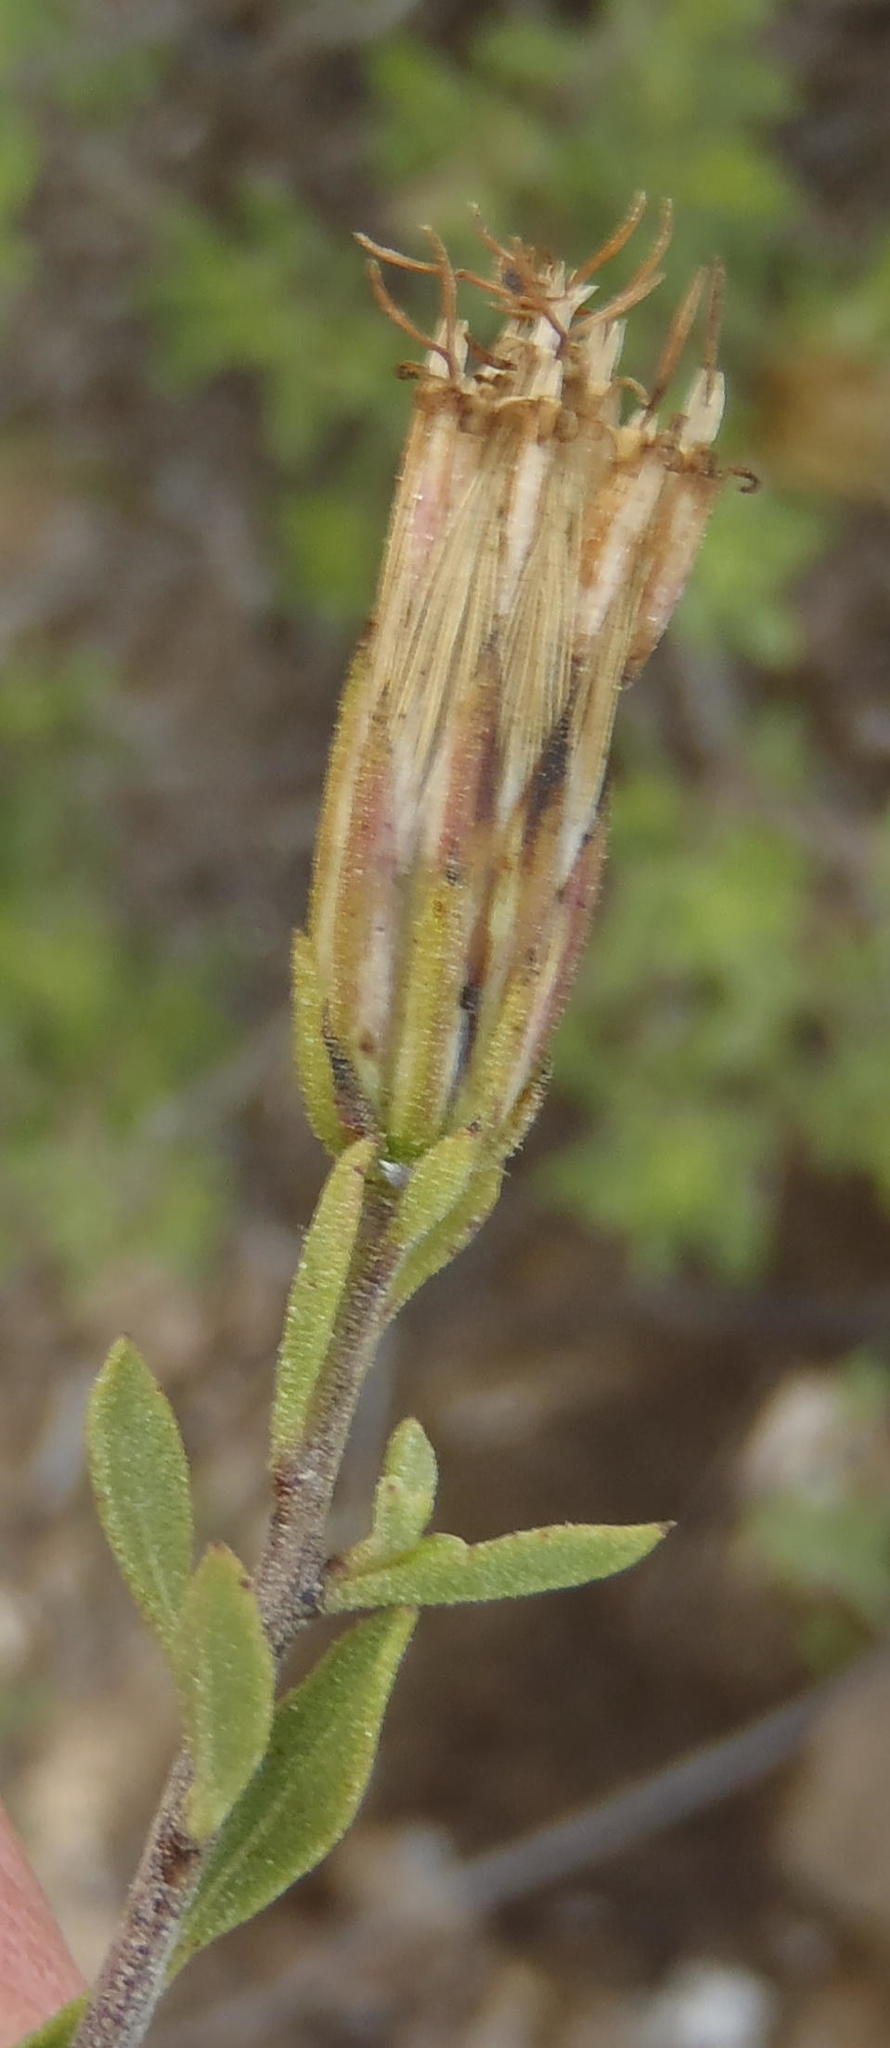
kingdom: Plantae
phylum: Tracheophyta
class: Magnoliopsida
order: Asterales
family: Asteraceae
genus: Pegolettia
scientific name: Pegolettia retrofracta
